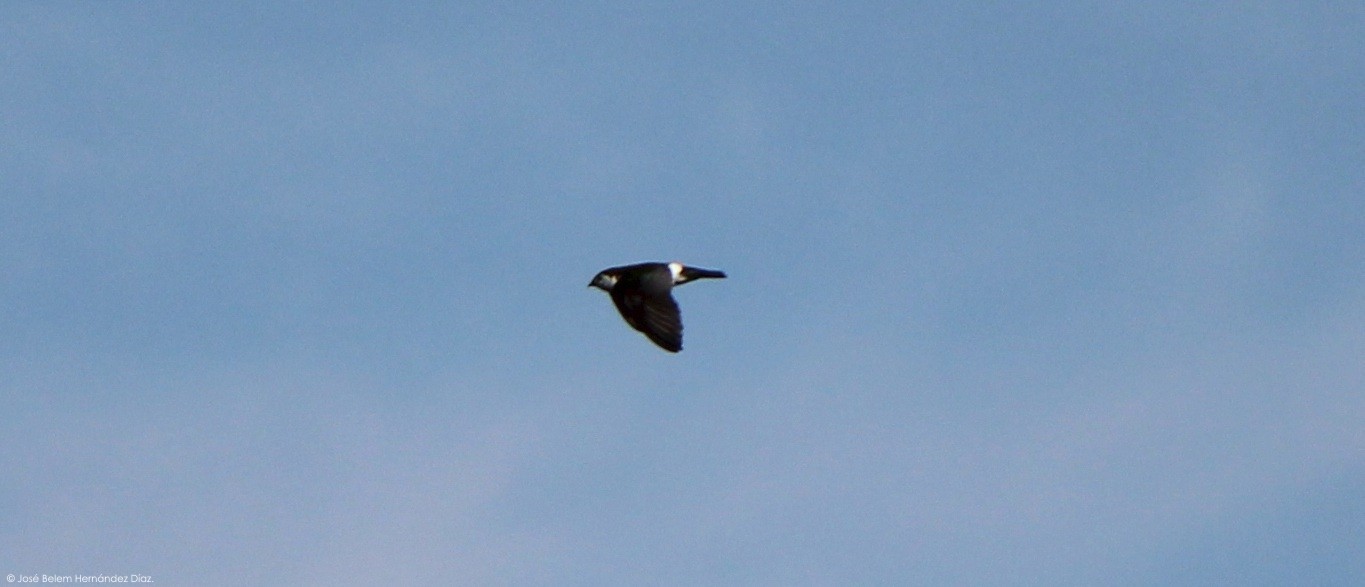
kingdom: Animalia
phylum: Chordata
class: Aves
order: Passeriformes
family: Hirundinidae
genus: Tachycineta
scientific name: Tachycineta thalassina
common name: Violet-green swallow
